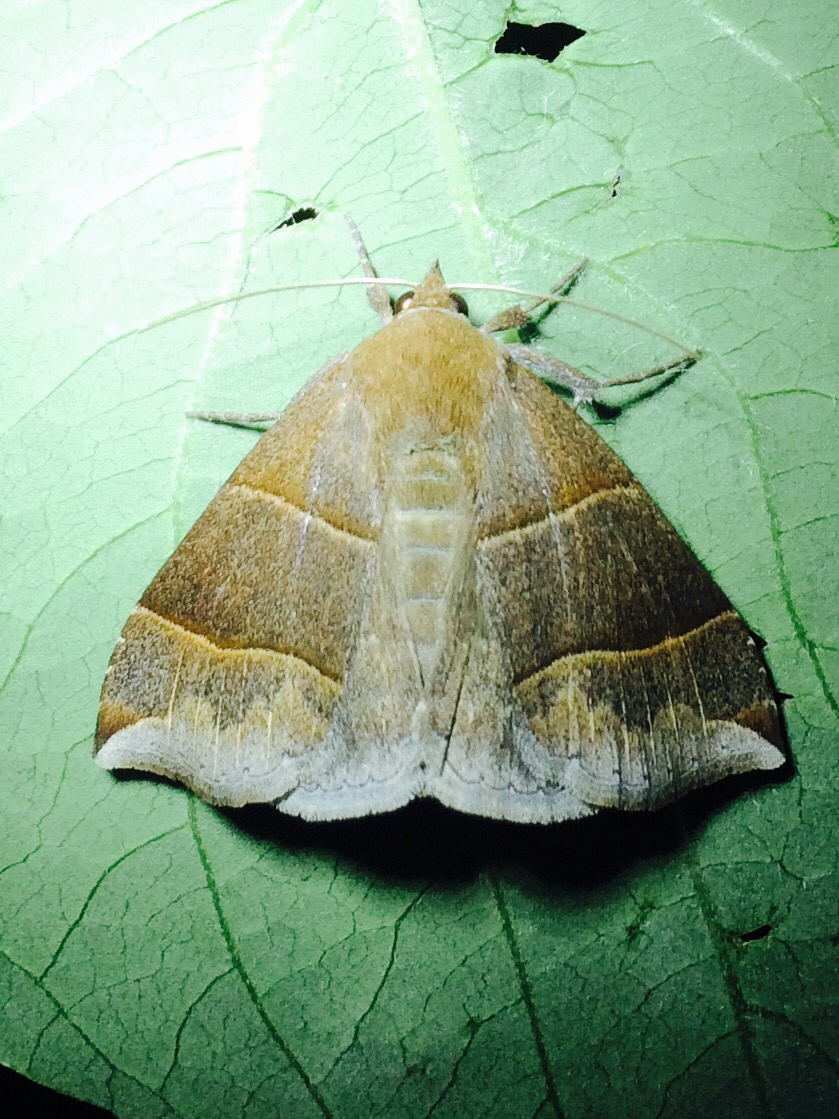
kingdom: Animalia
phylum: Arthropoda
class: Insecta
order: Lepidoptera
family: Erebidae
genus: Parallelia
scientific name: Parallelia bistriaris
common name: Maple looper moth
